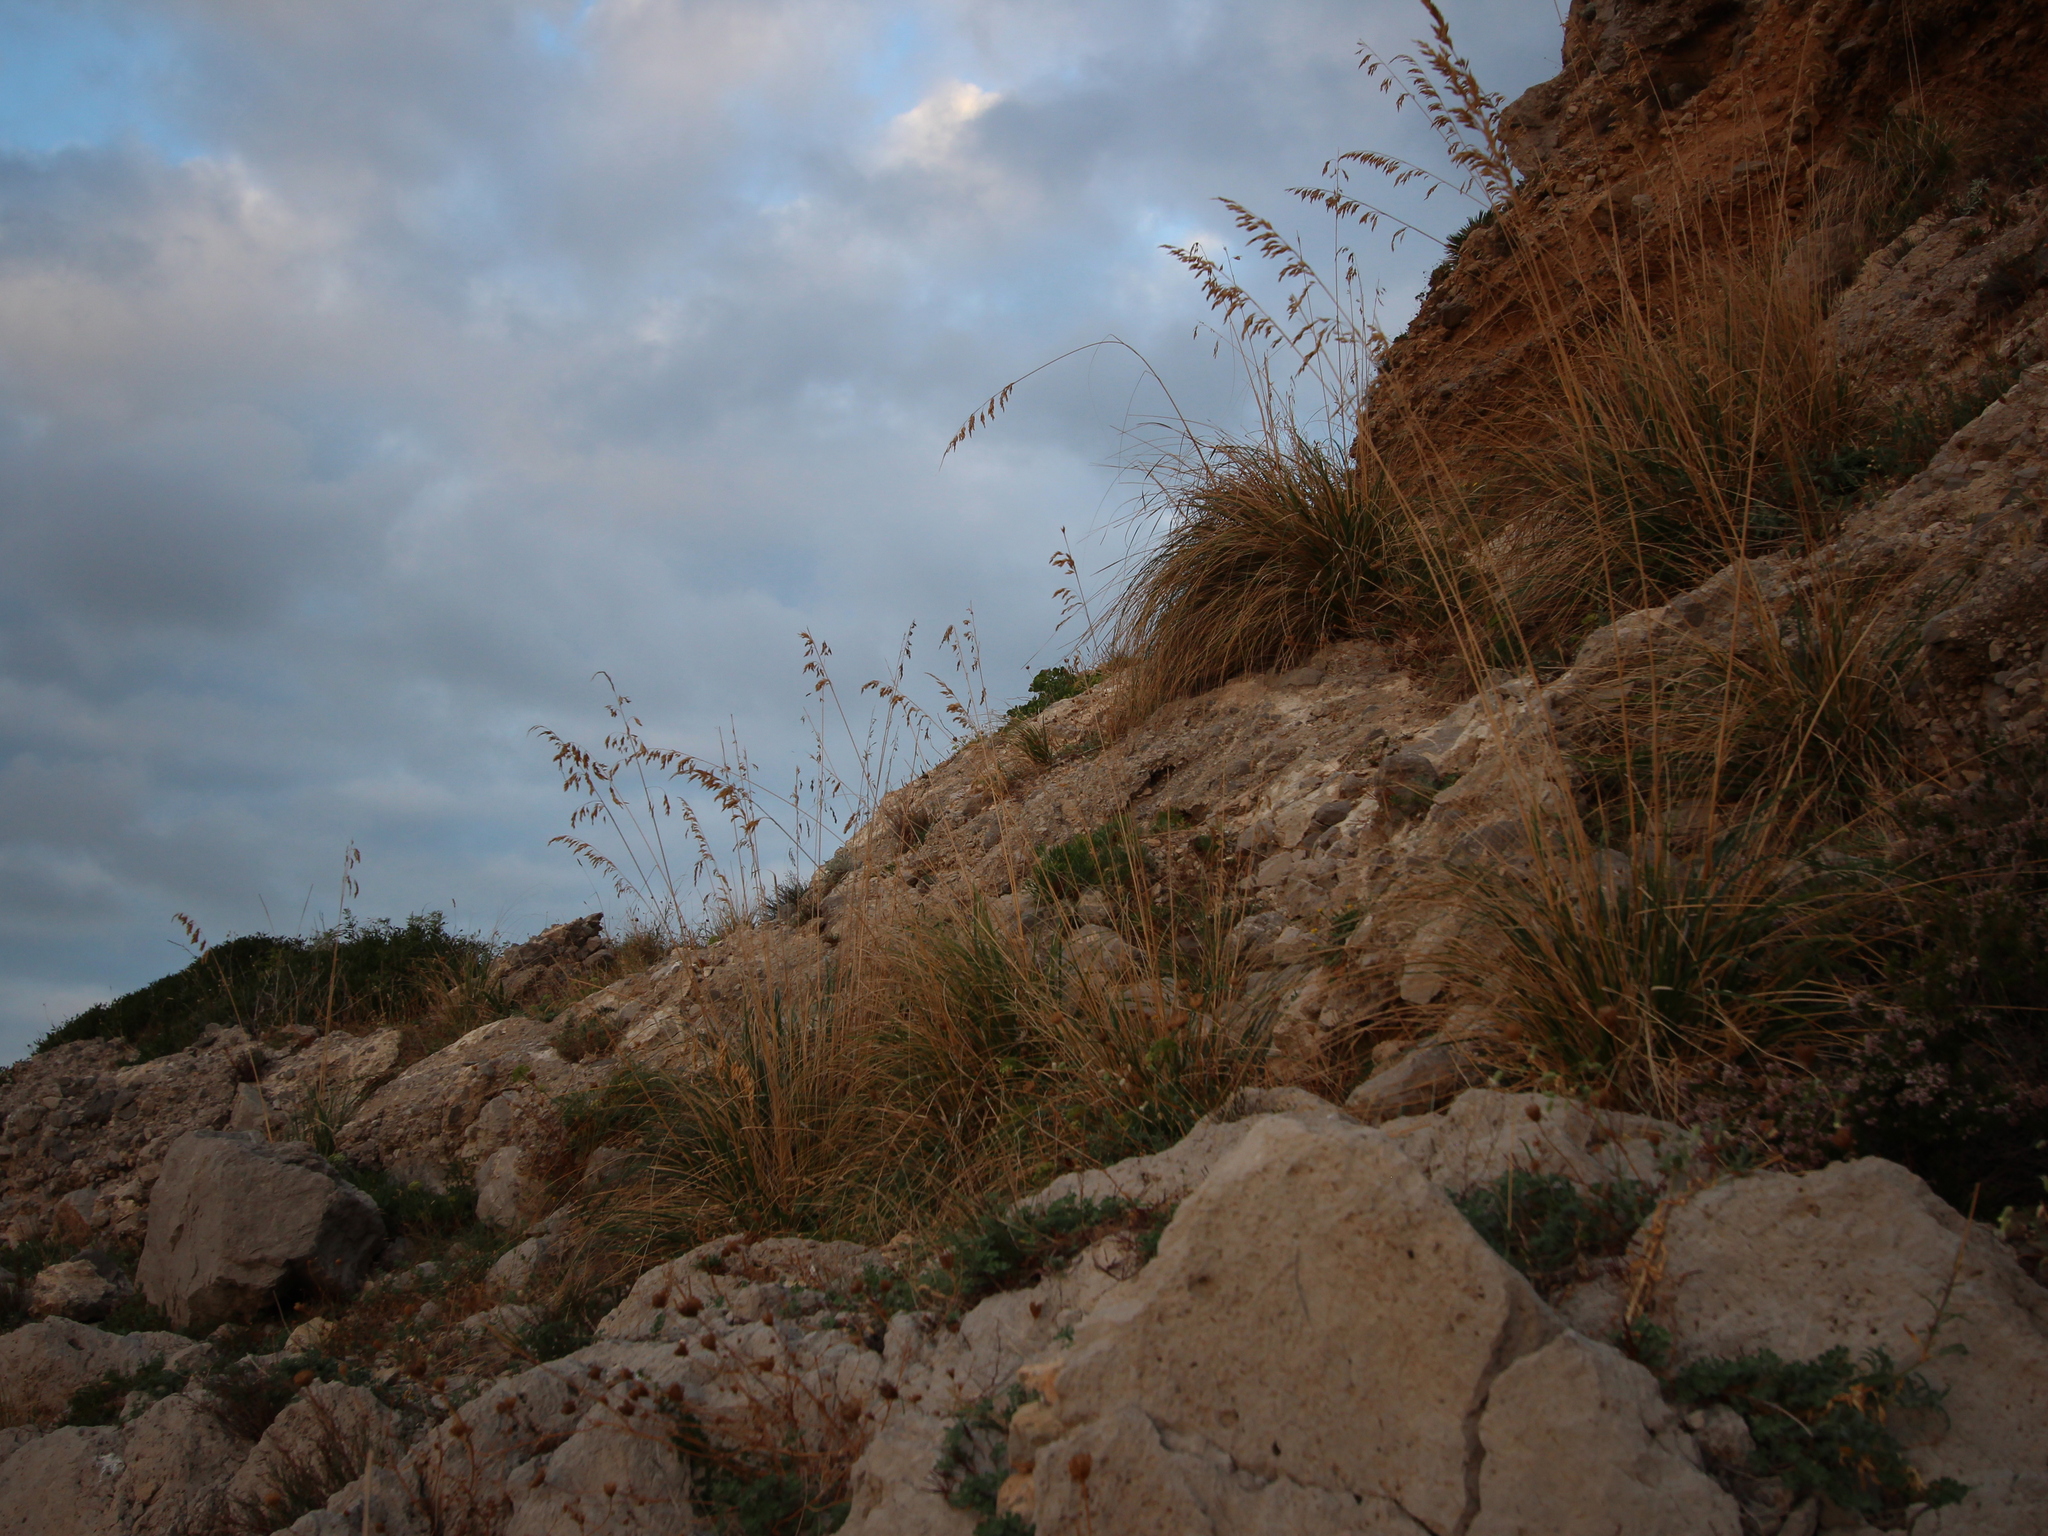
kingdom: Plantae
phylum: Tracheophyta
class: Liliopsida
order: Poales
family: Poaceae
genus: Ampelodesmos
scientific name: Ampelodesmos mauritanicus
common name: Mauritanian grass
